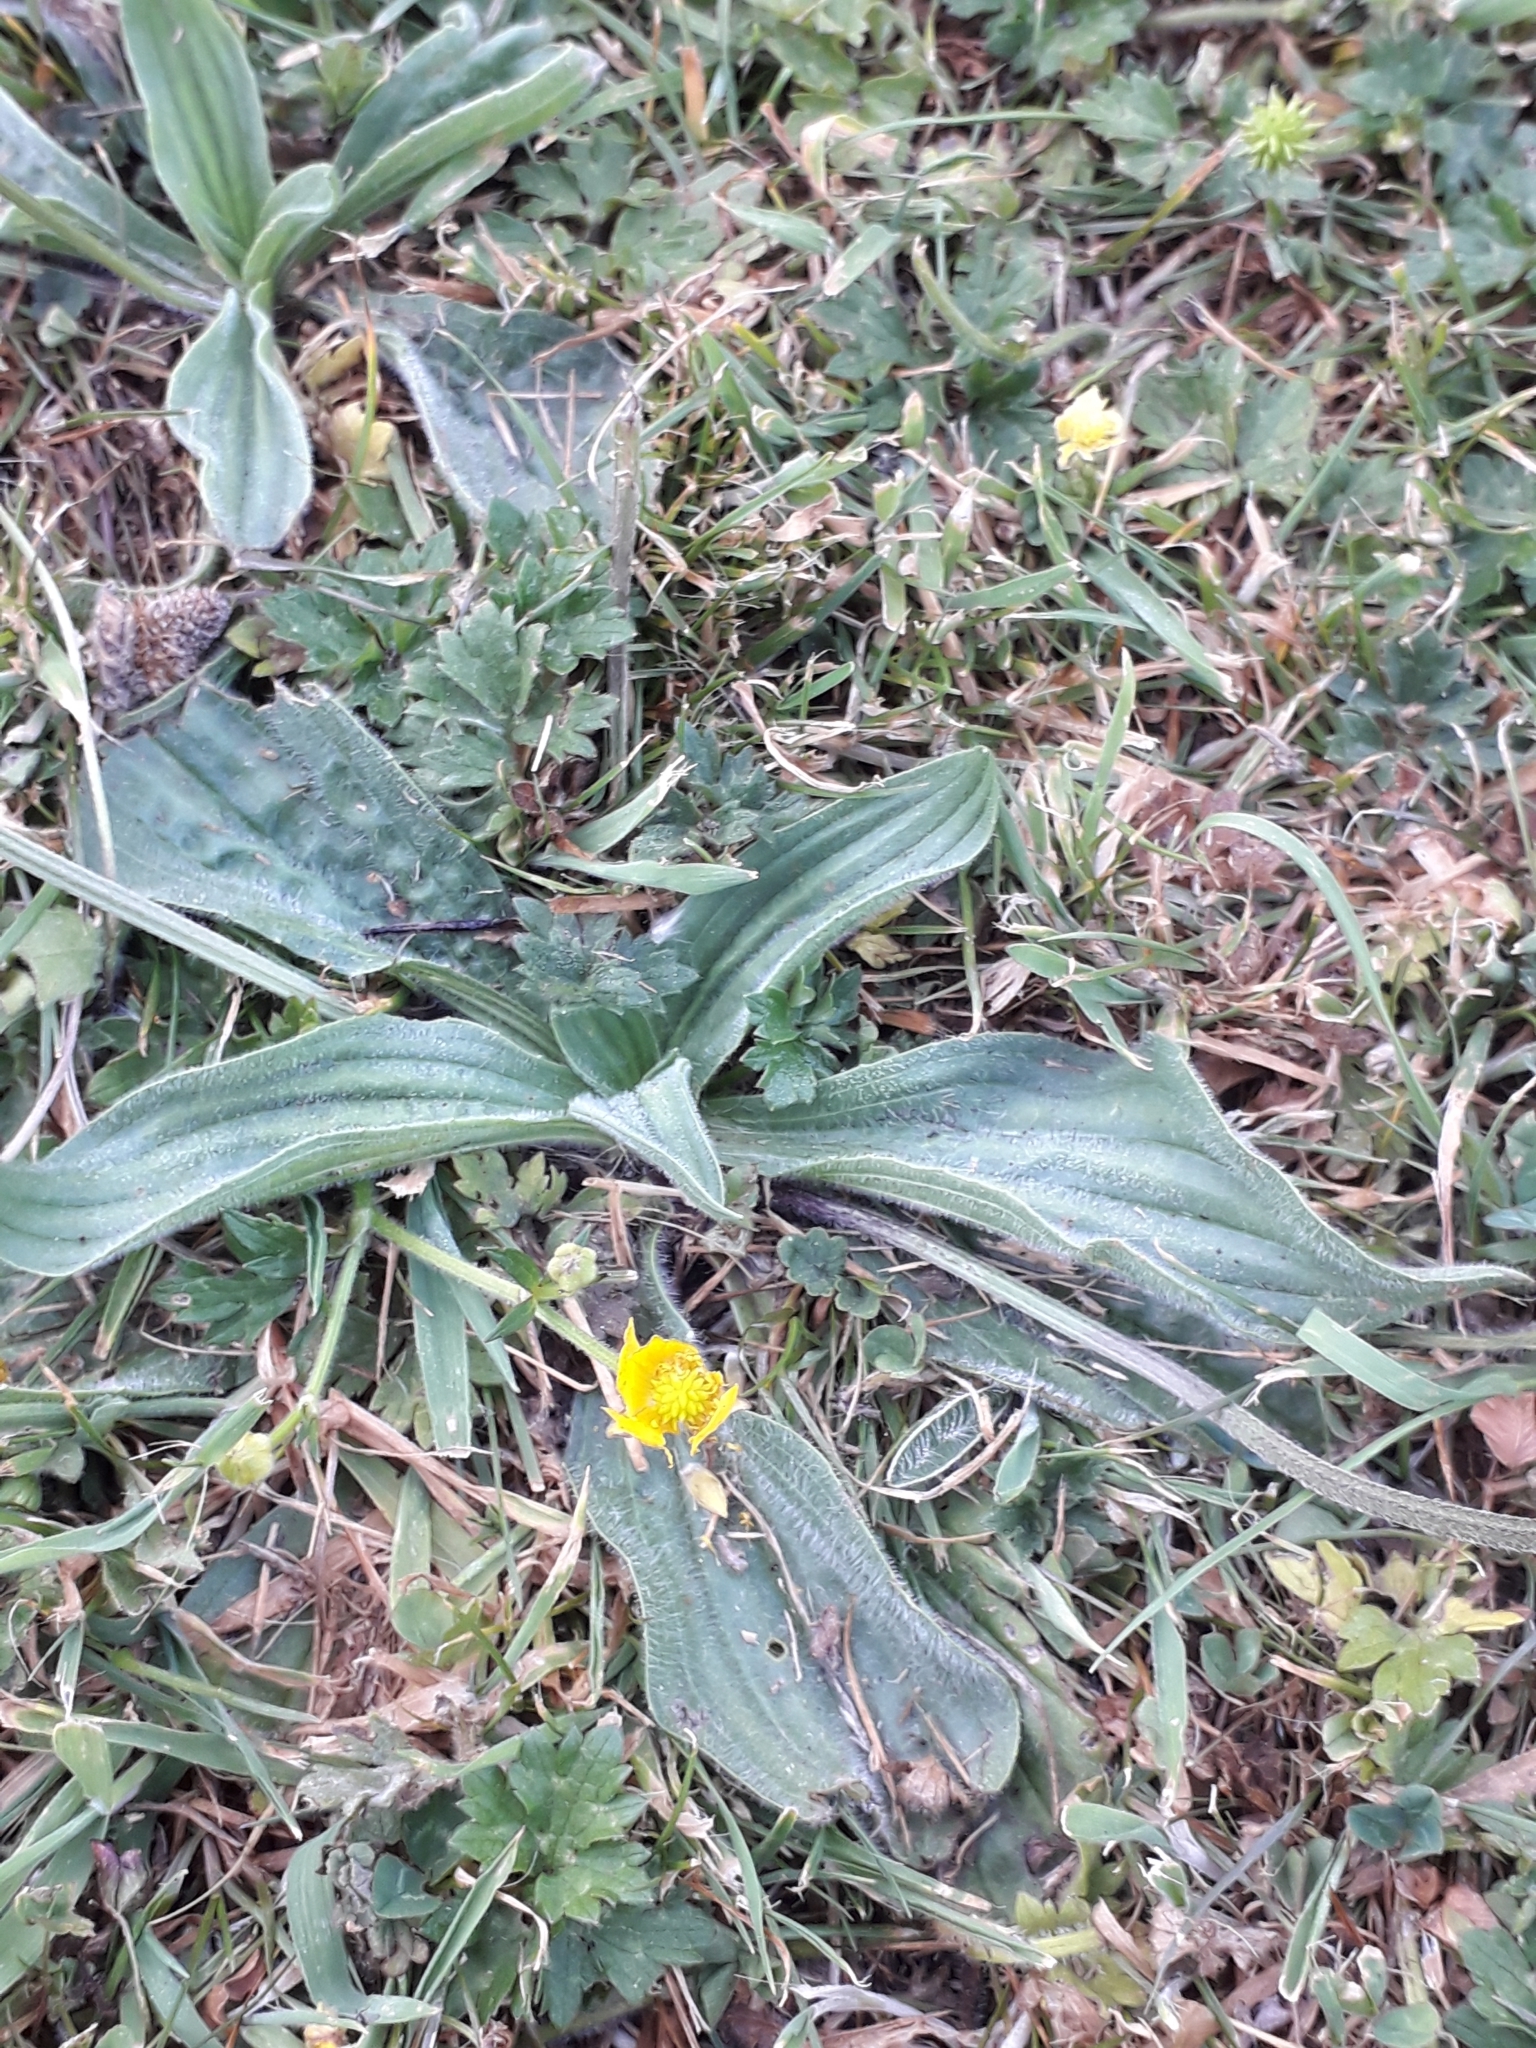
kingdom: Plantae
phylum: Tracheophyta
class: Magnoliopsida
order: Lamiales
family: Plantaginaceae
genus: Plantago
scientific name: Plantago lanceolata
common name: Ribwort plantain
